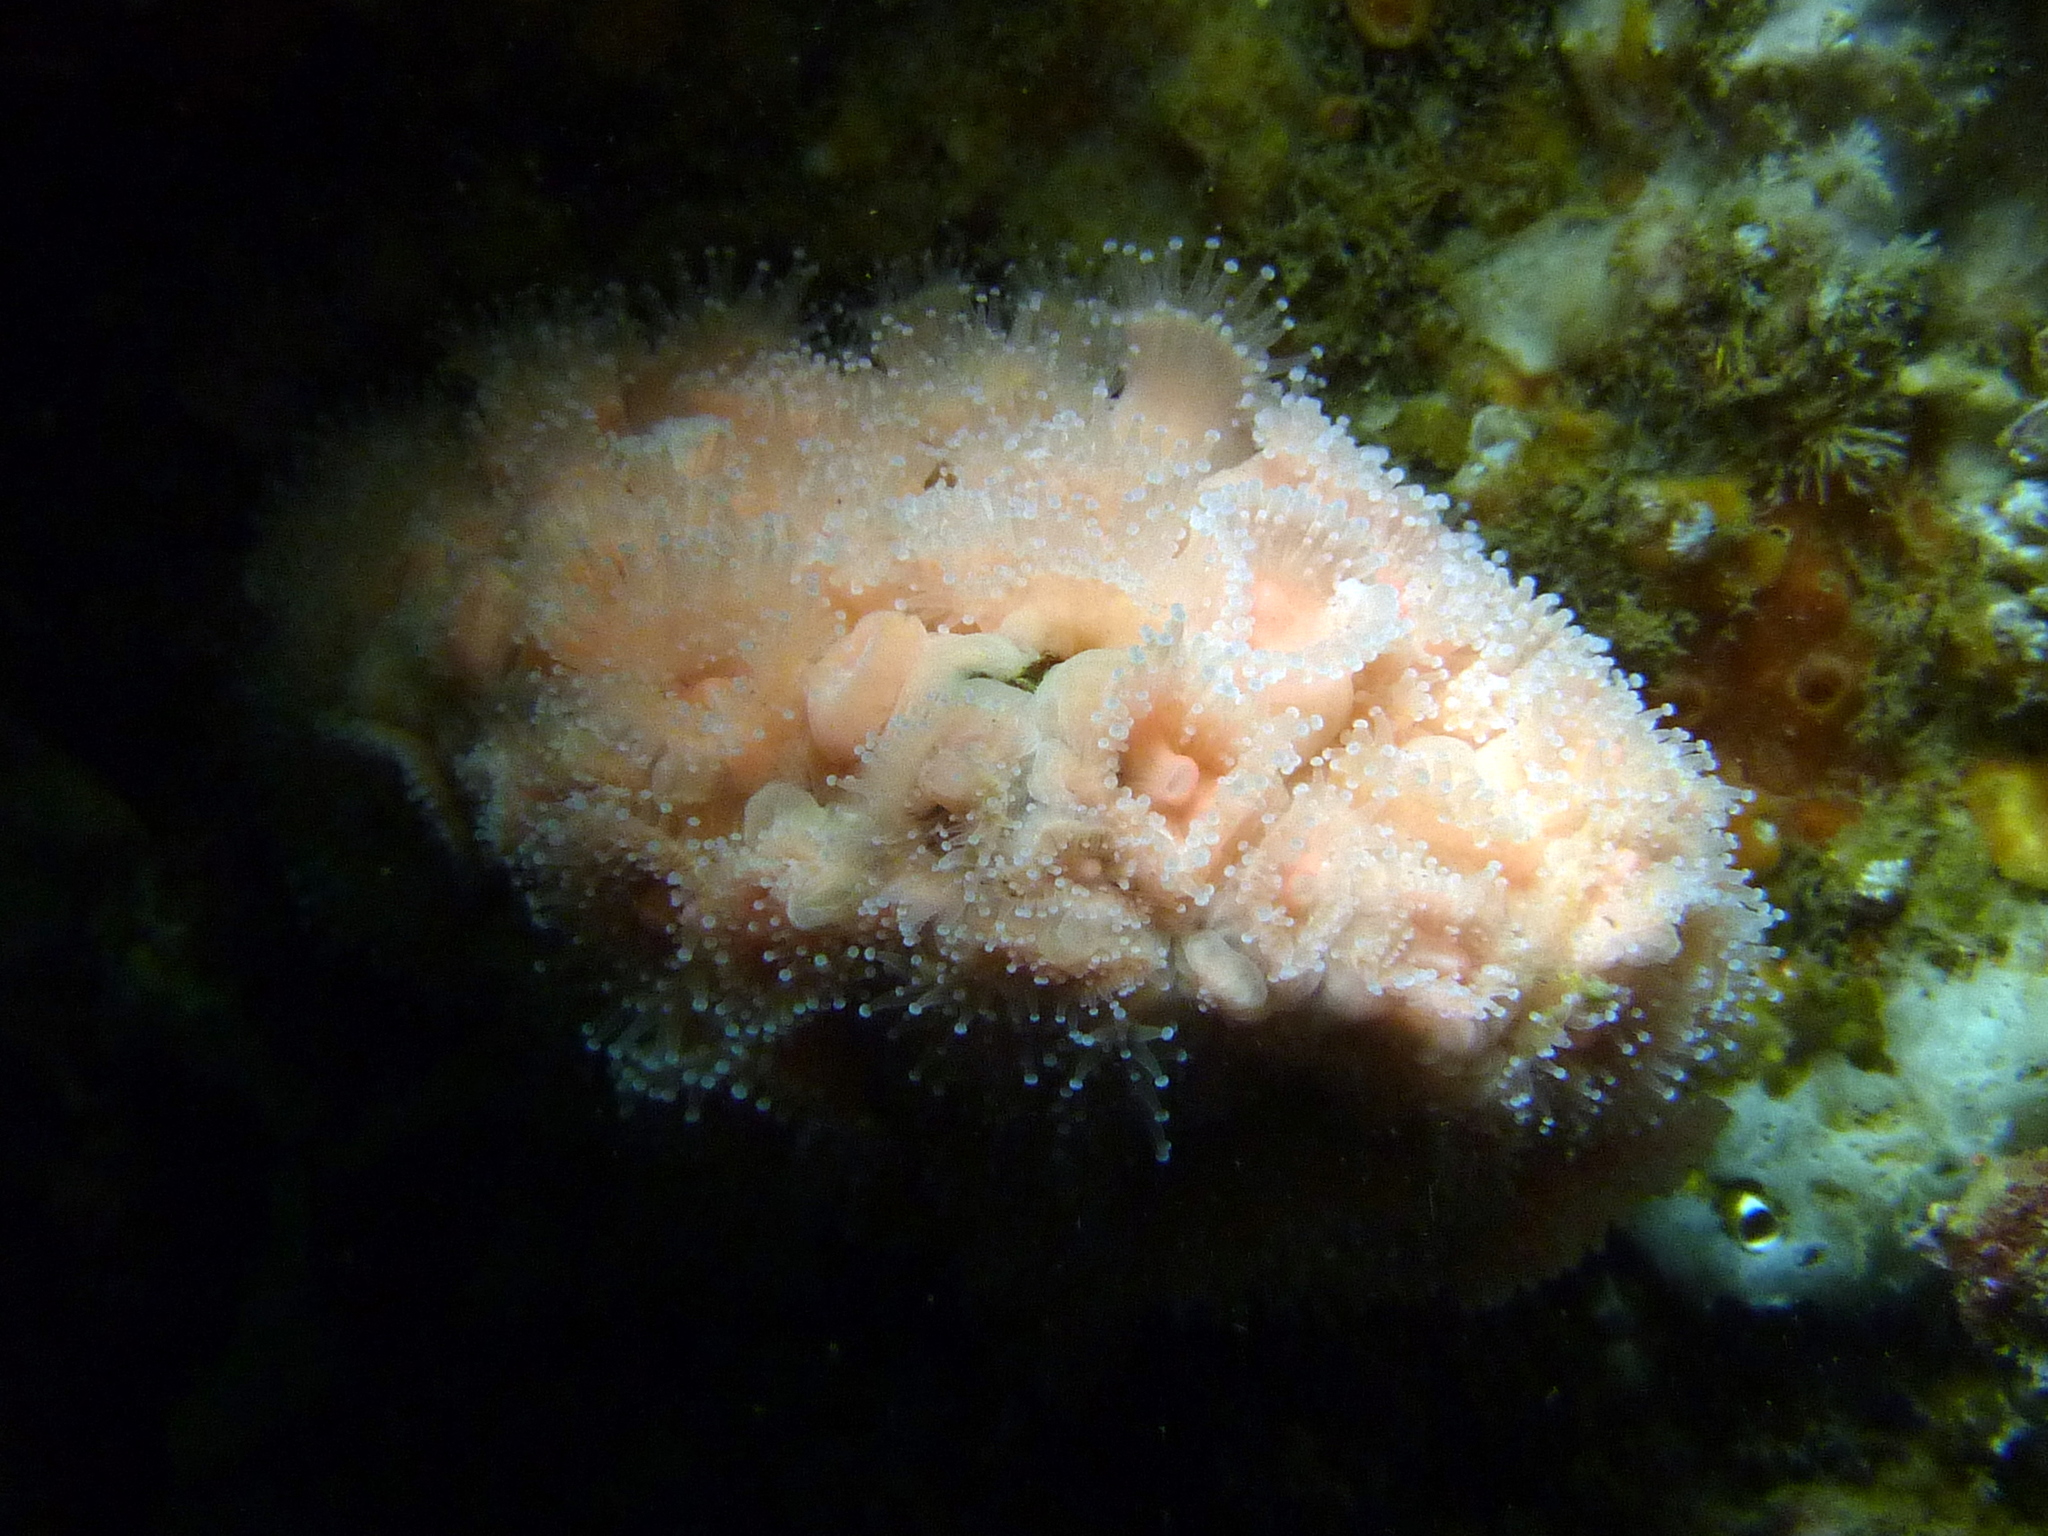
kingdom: Animalia
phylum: Cnidaria
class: Anthozoa
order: Corallimorpharia
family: Corallimorphidae
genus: Corynactis
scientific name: Corynactis australis
